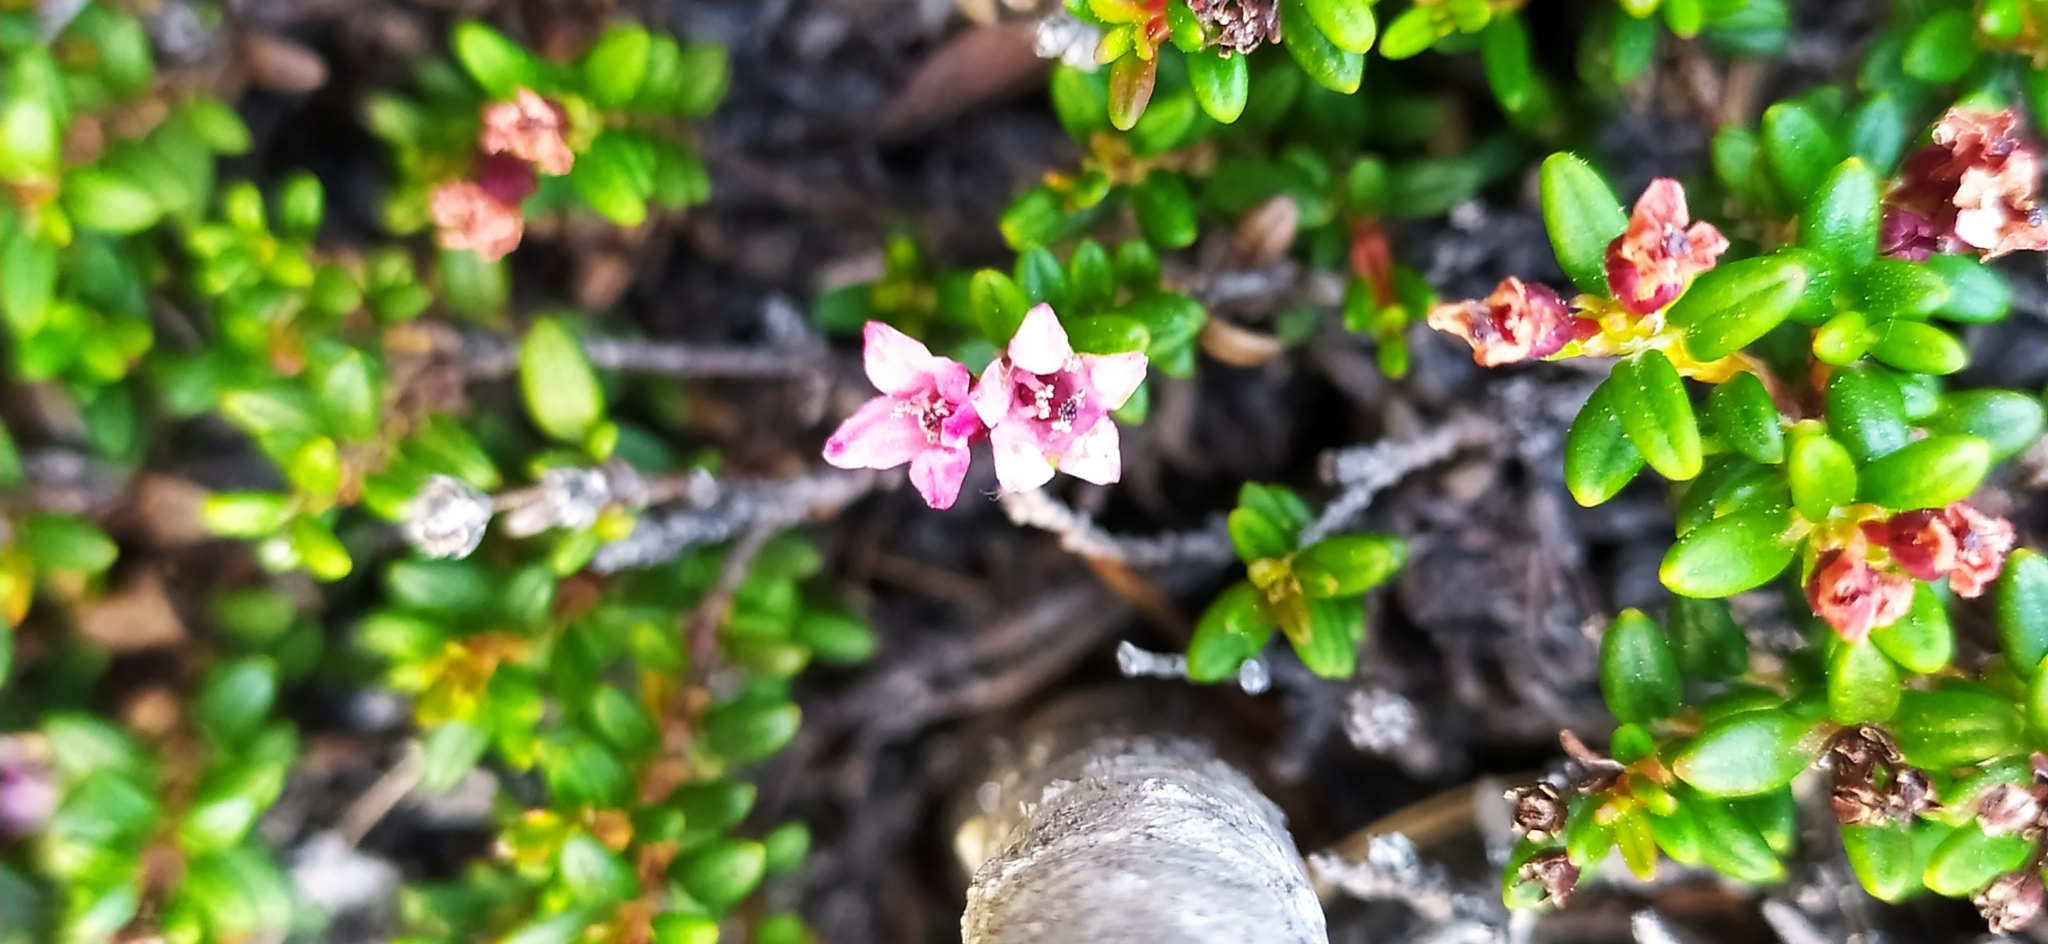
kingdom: Plantae
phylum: Tracheophyta
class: Magnoliopsida
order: Ericales
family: Ericaceae
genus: Kalmia
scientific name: Kalmia procumbens
